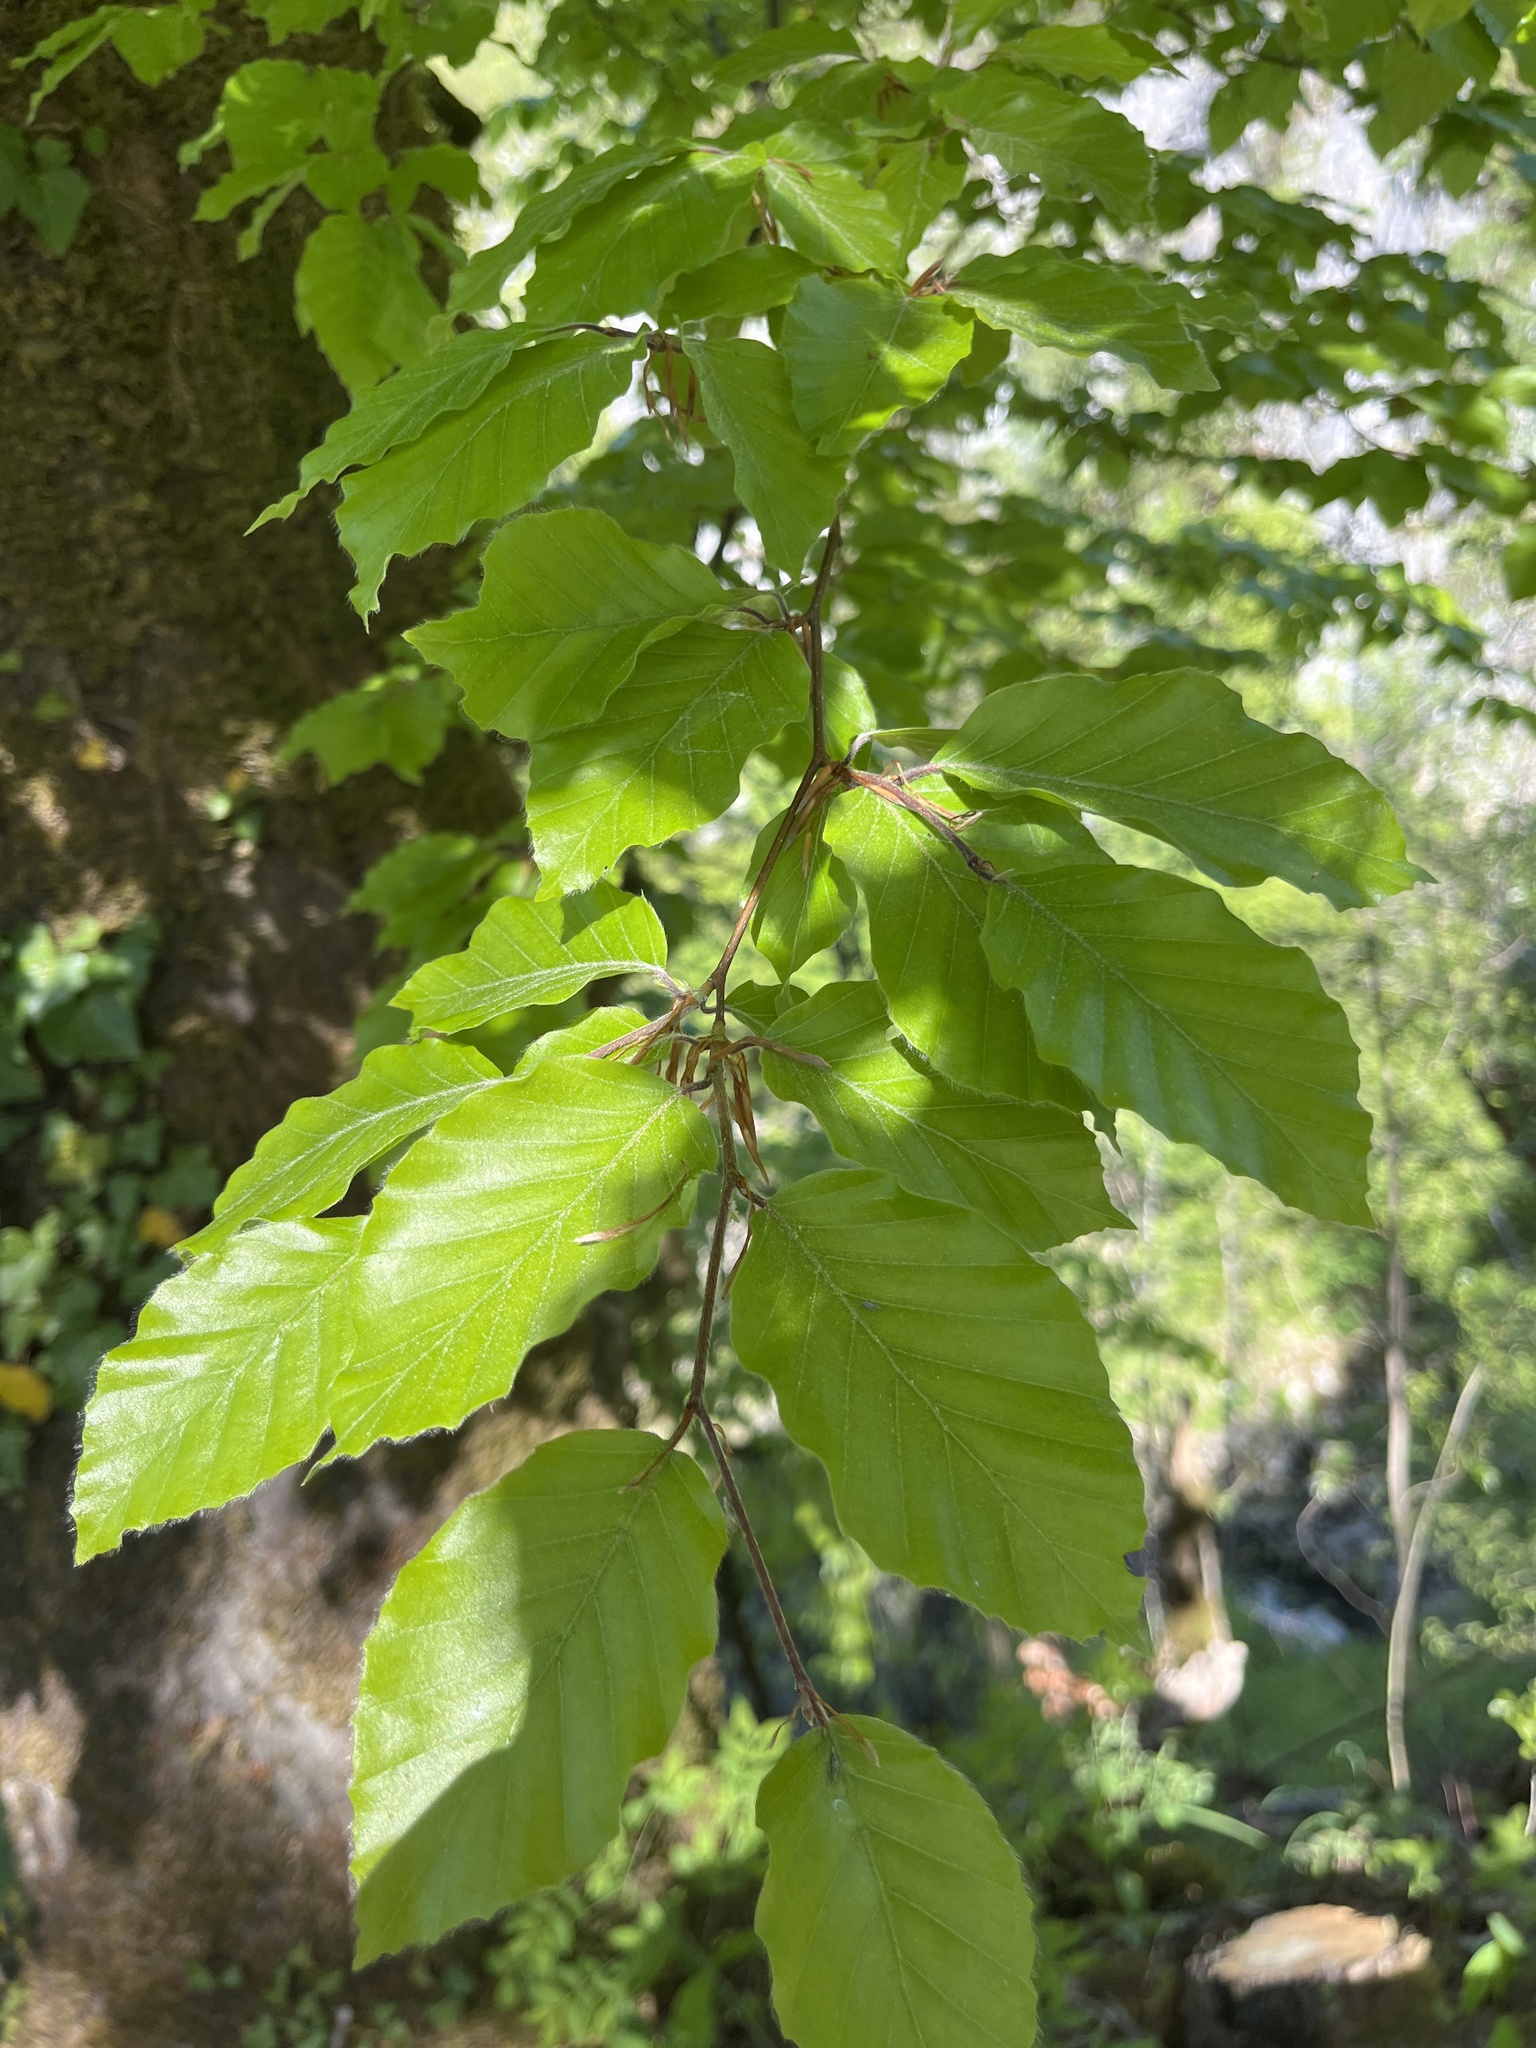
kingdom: Plantae
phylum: Tracheophyta
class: Magnoliopsida
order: Fagales
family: Fagaceae
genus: Fagus
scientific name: Fagus sylvatica
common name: Beech
